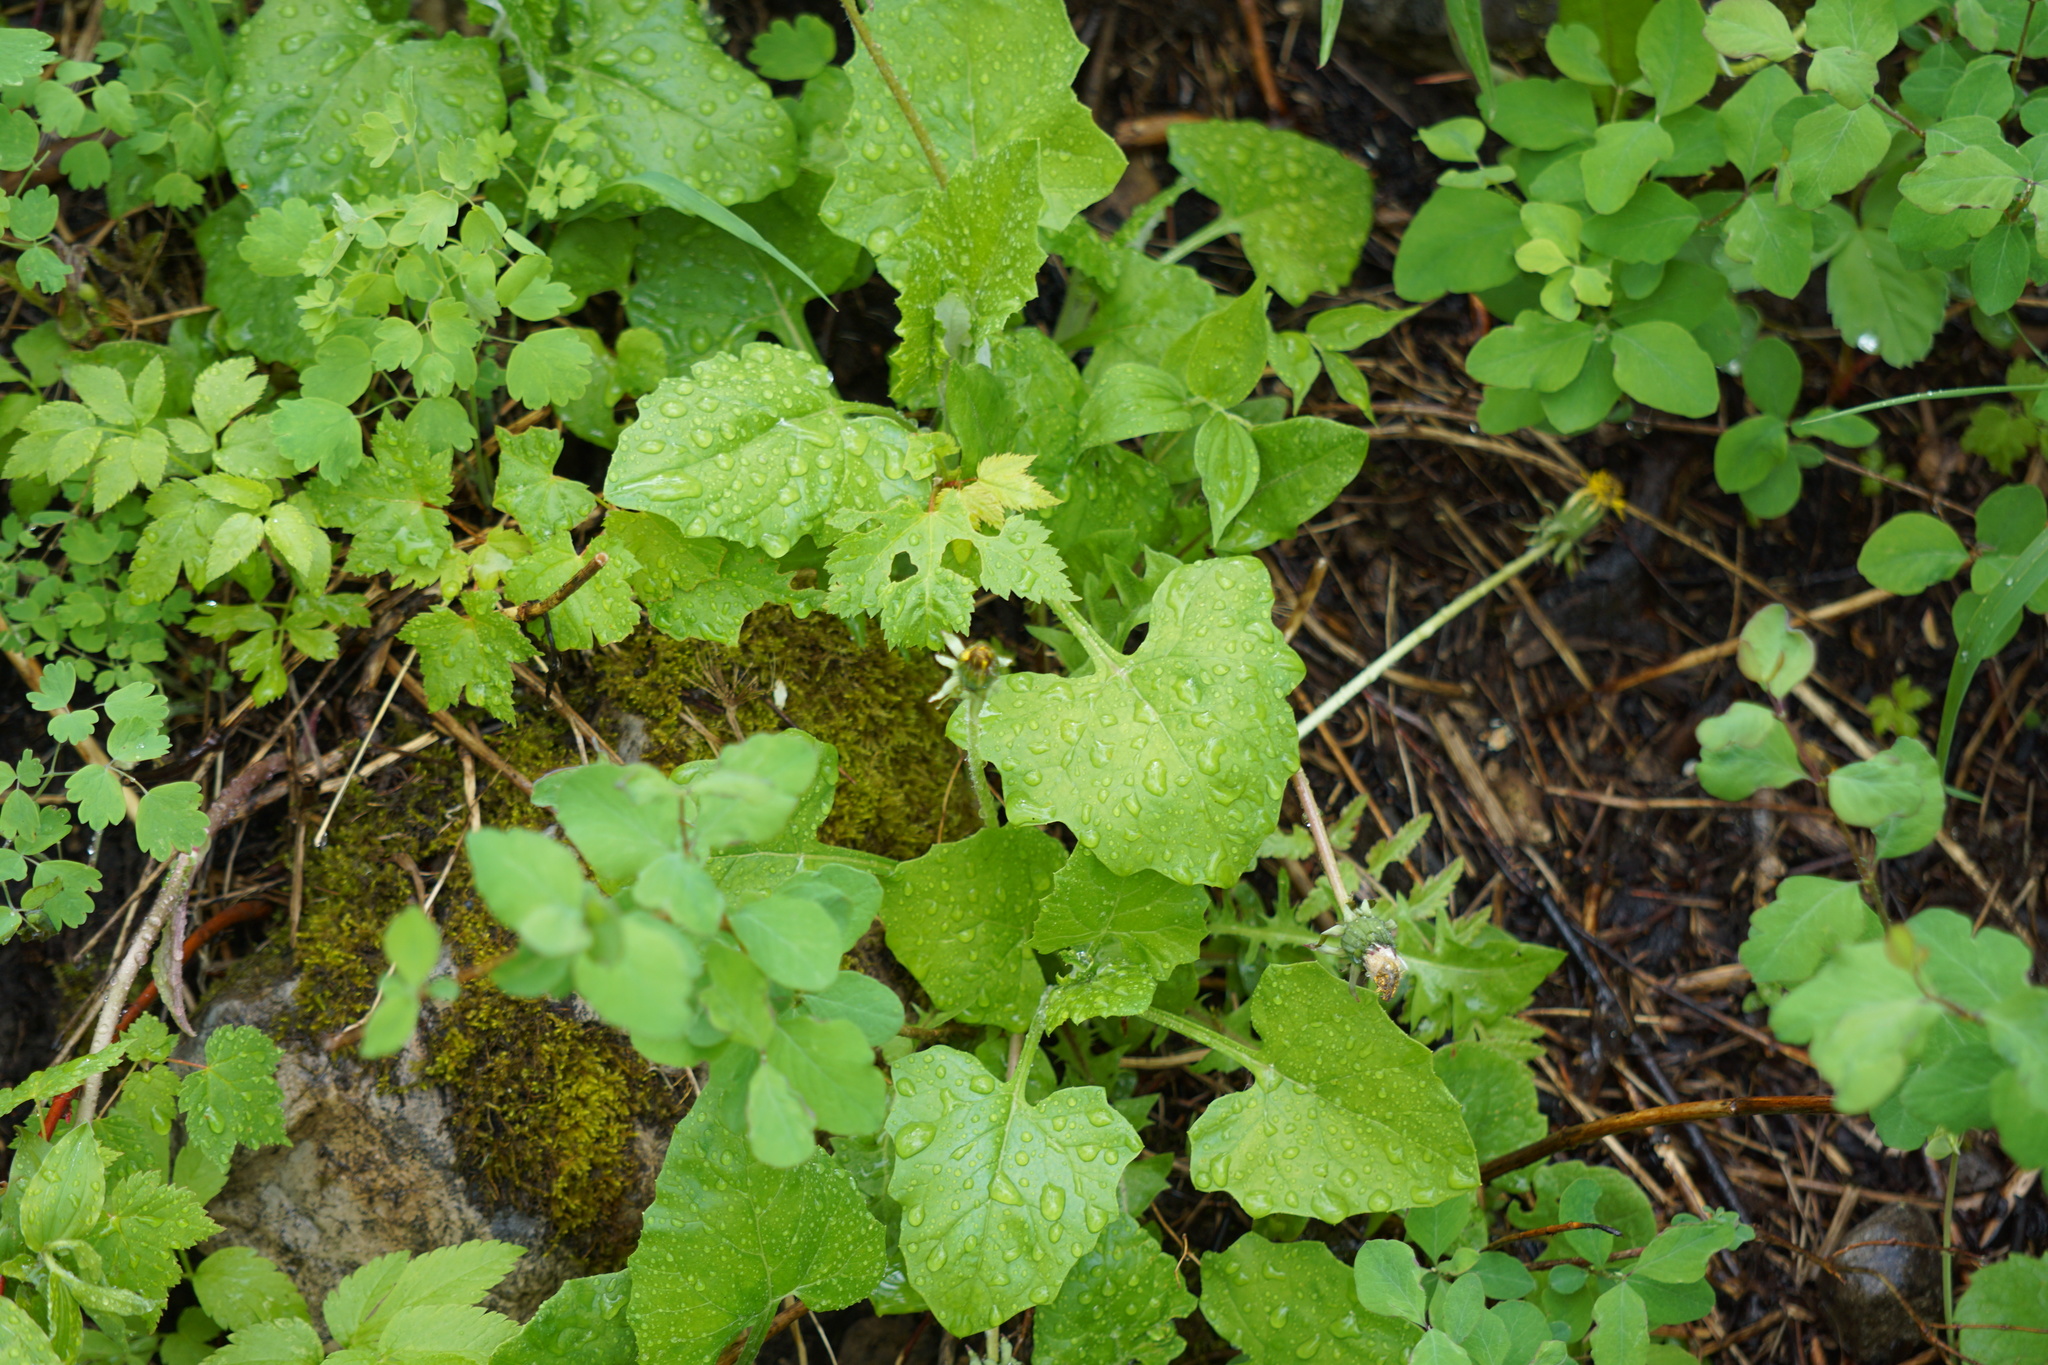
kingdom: Plantae
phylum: Tracheophyta
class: Magnoliopsida
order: Asterales
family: Asteraceae
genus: Adenocaulon
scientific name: Adenocaulon bicolor
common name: Trailplant
